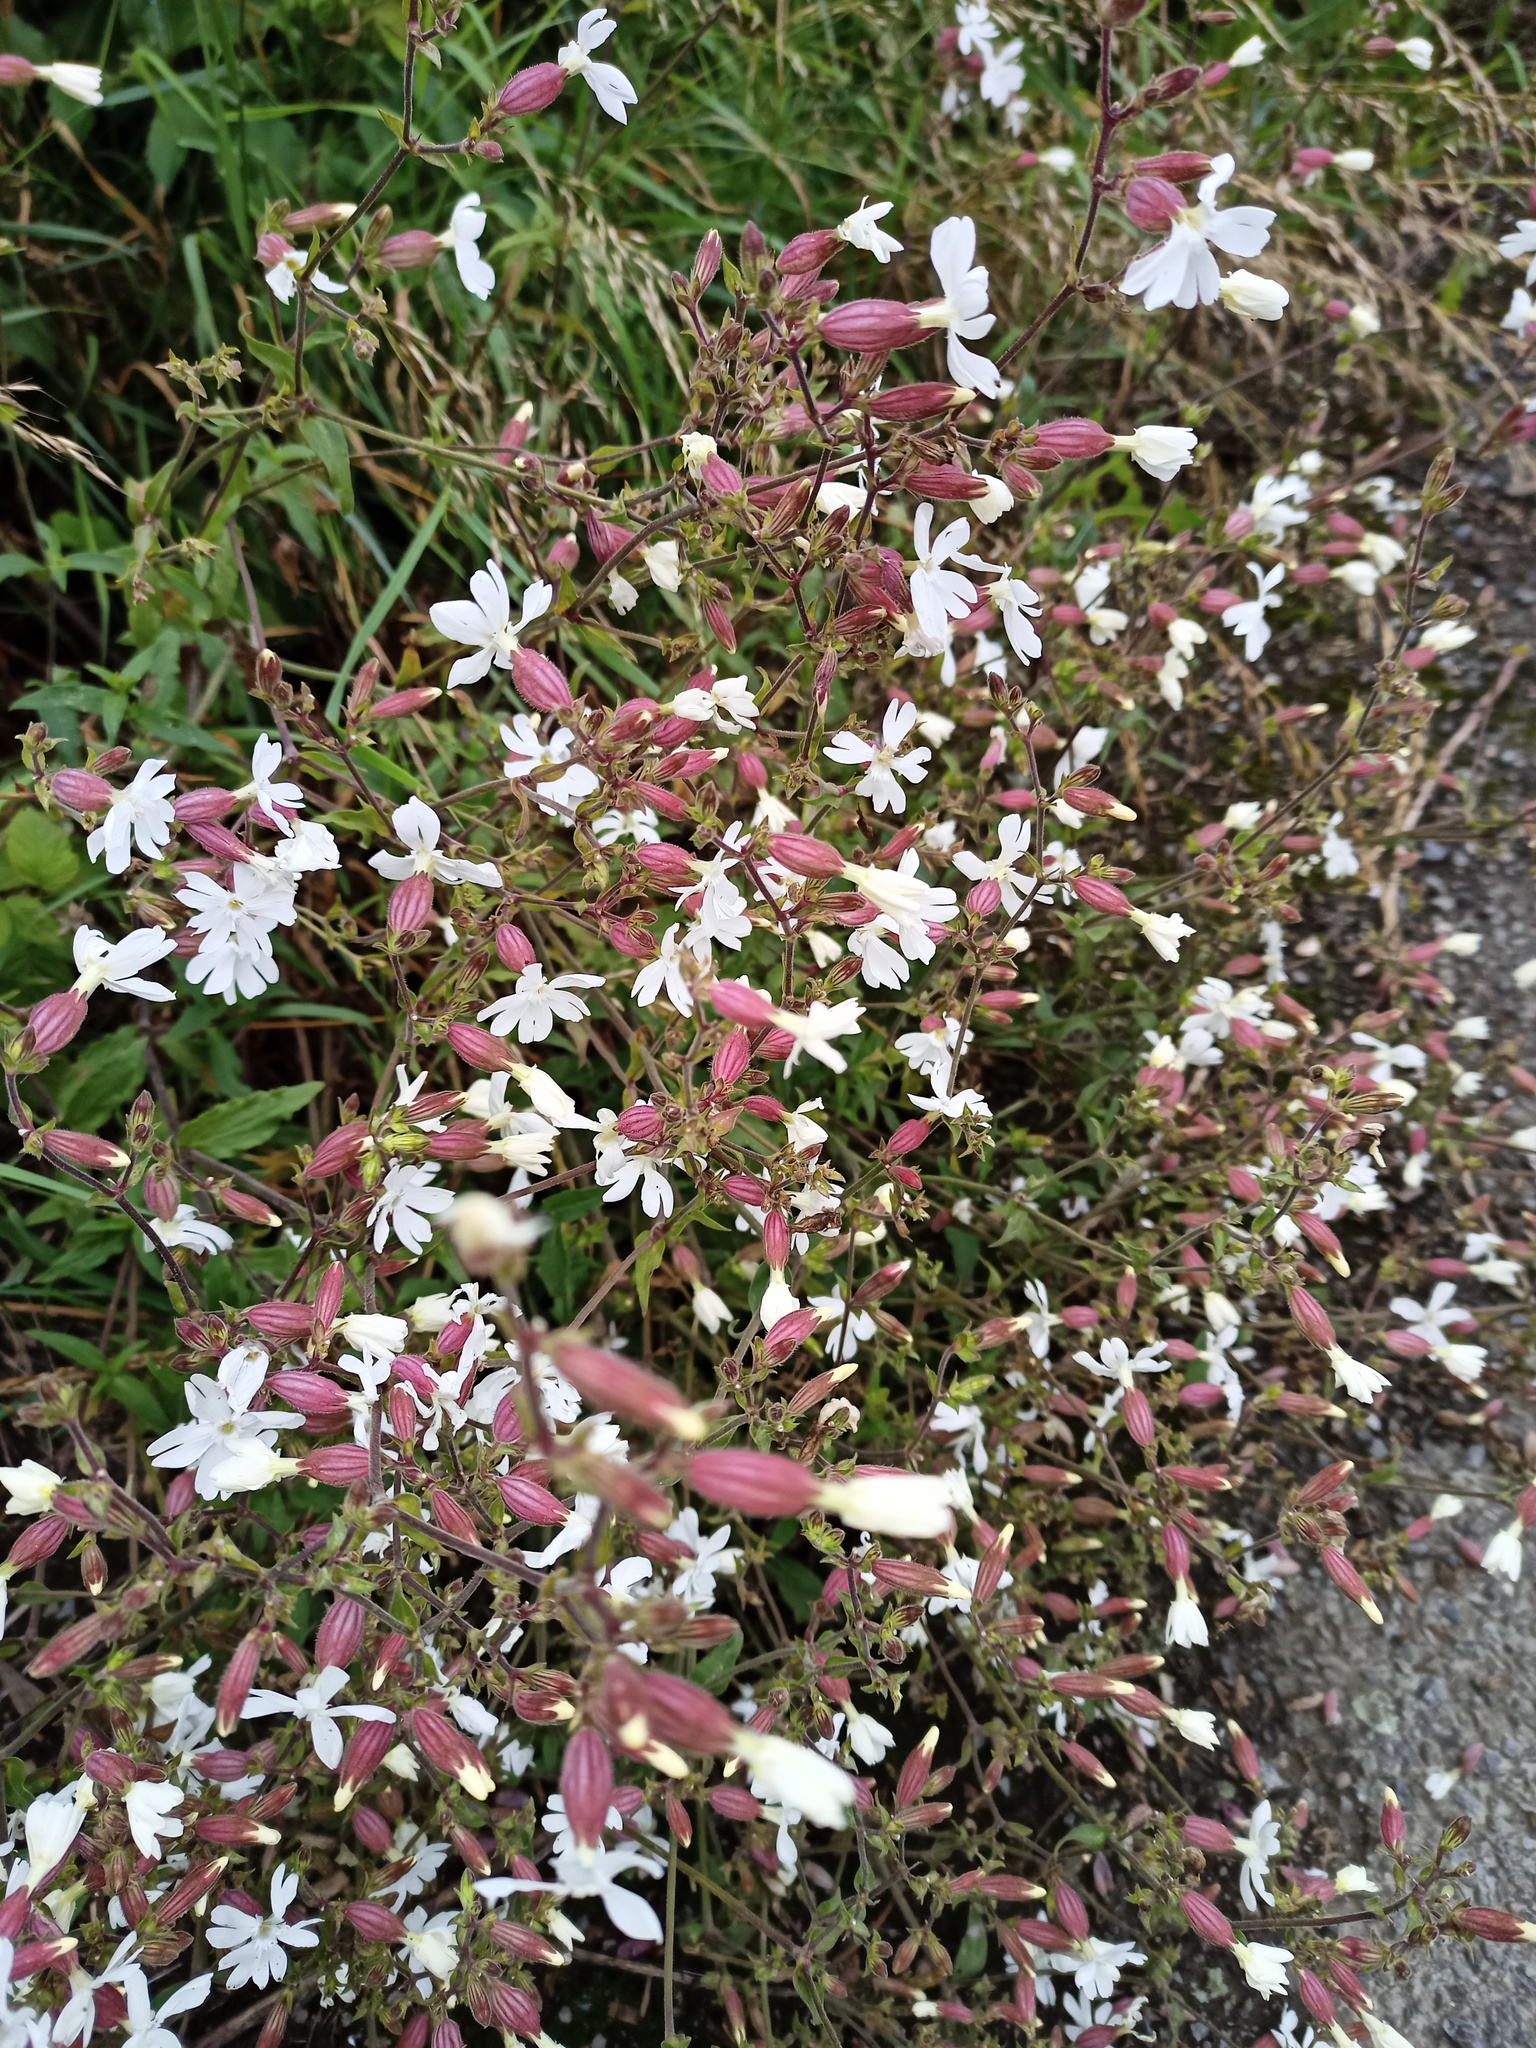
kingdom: Plantae
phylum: Tracheophyta
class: Magnoliopsida
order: Caryophyllales
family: Caryophyllaceae
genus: Silene
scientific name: Silene latifolia
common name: White campion
